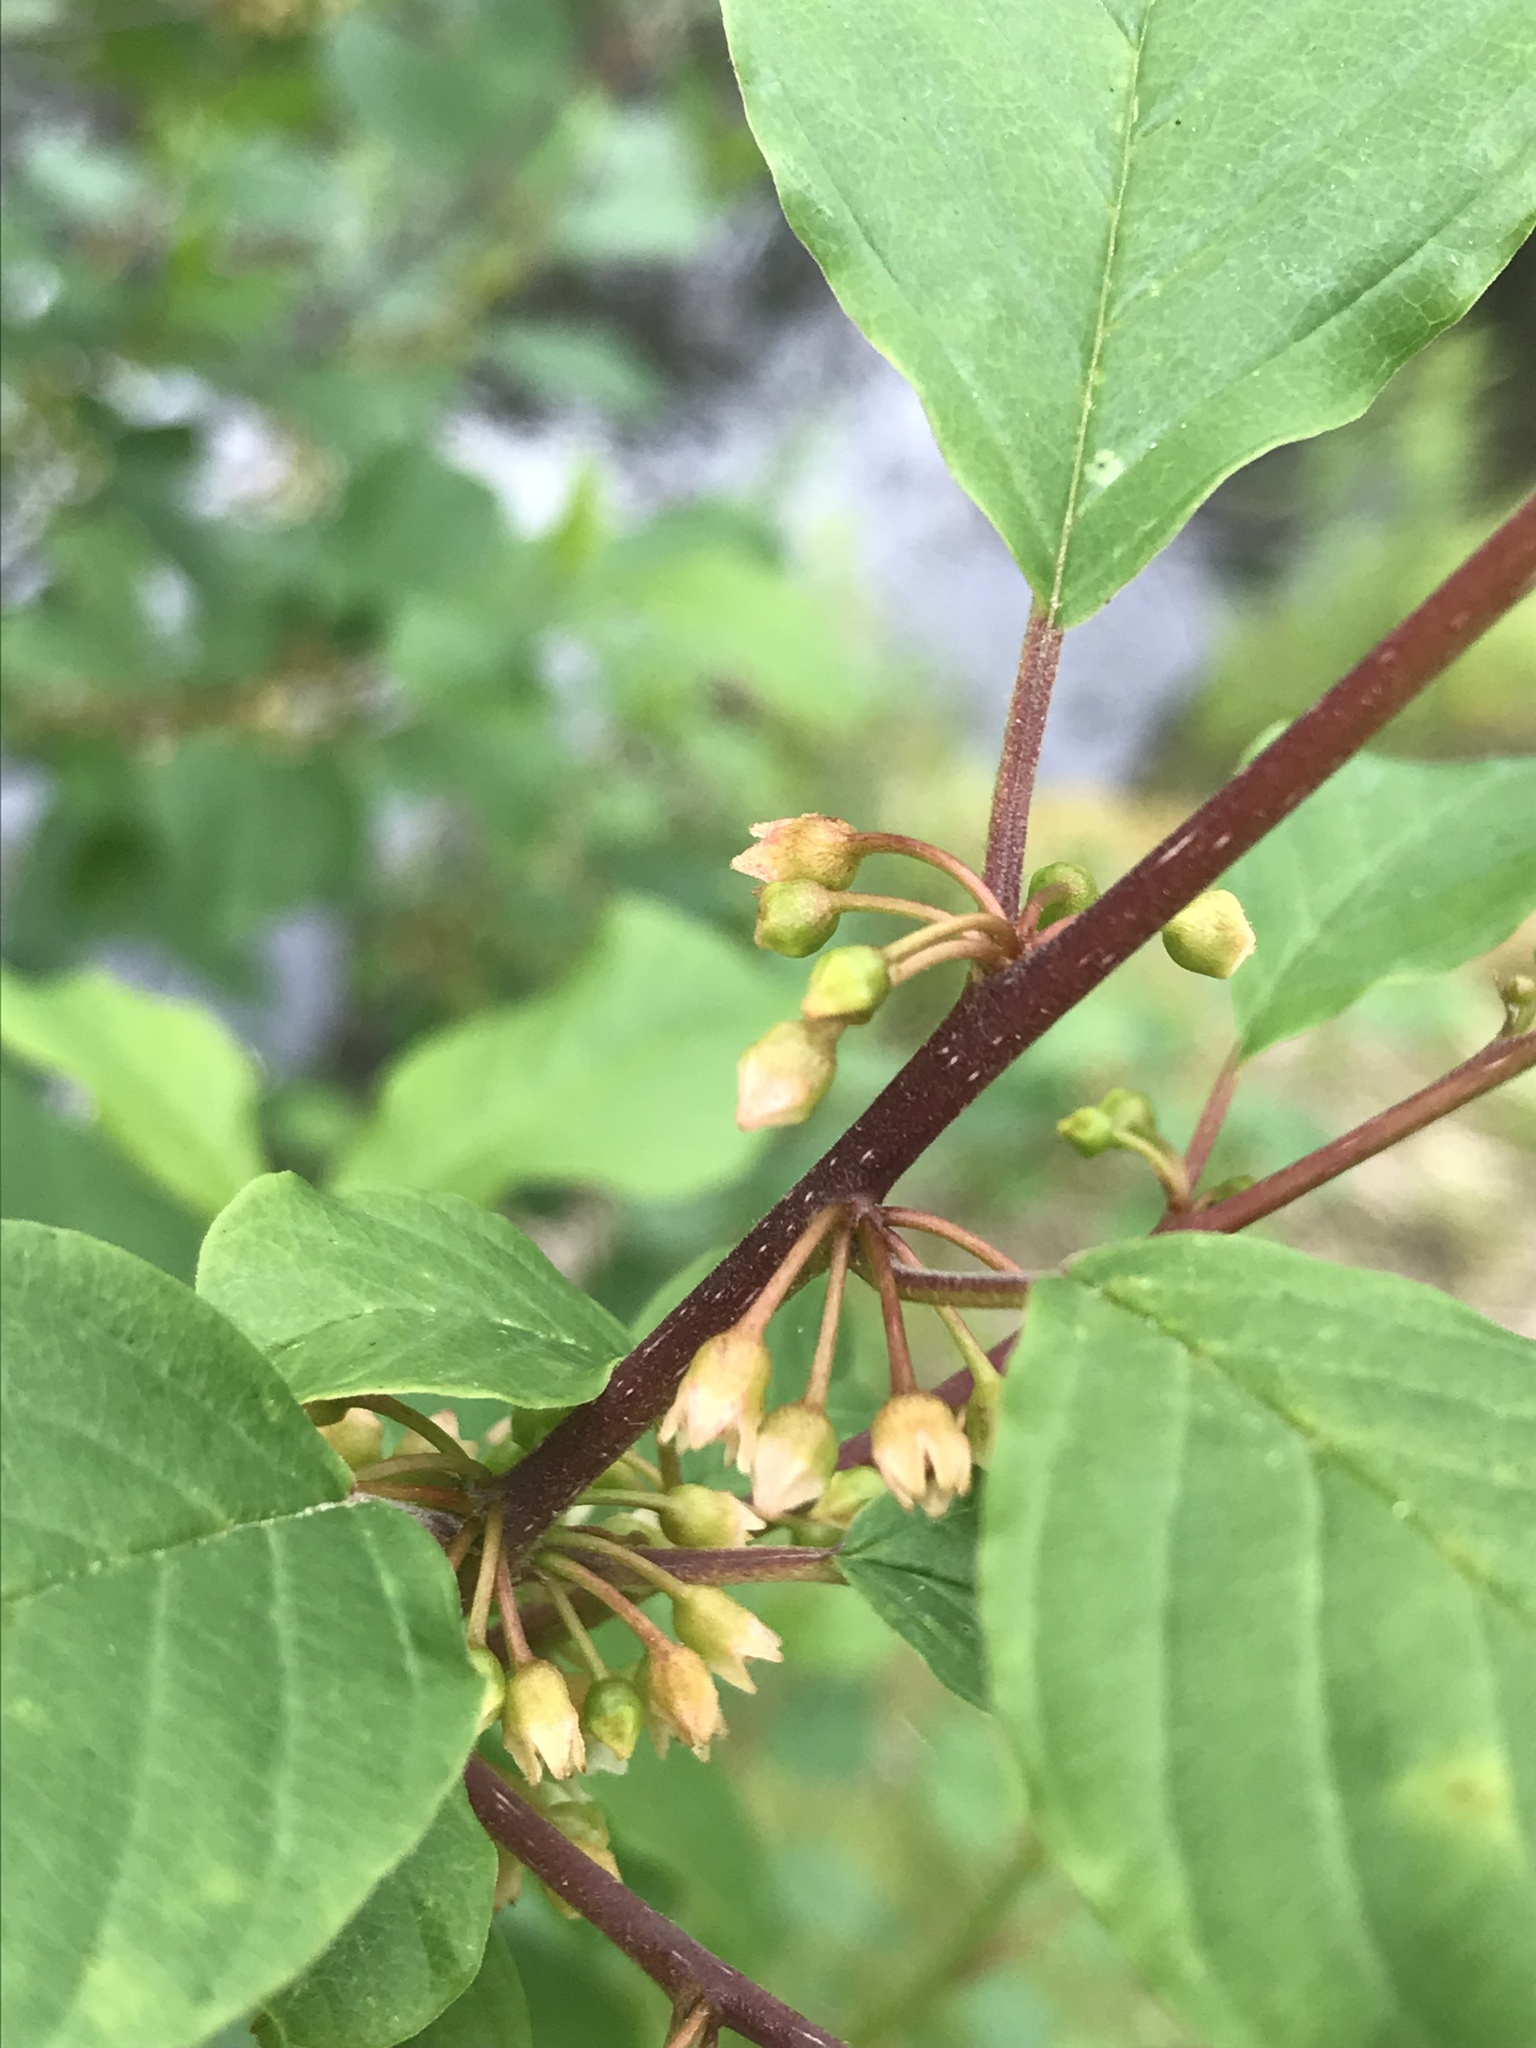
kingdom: Plantae
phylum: Tracheophyta
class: Magnoliopsida
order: Rosales
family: Rhamnaceae
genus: Frangula
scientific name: Frangula alnus
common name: Alder buckthorn
